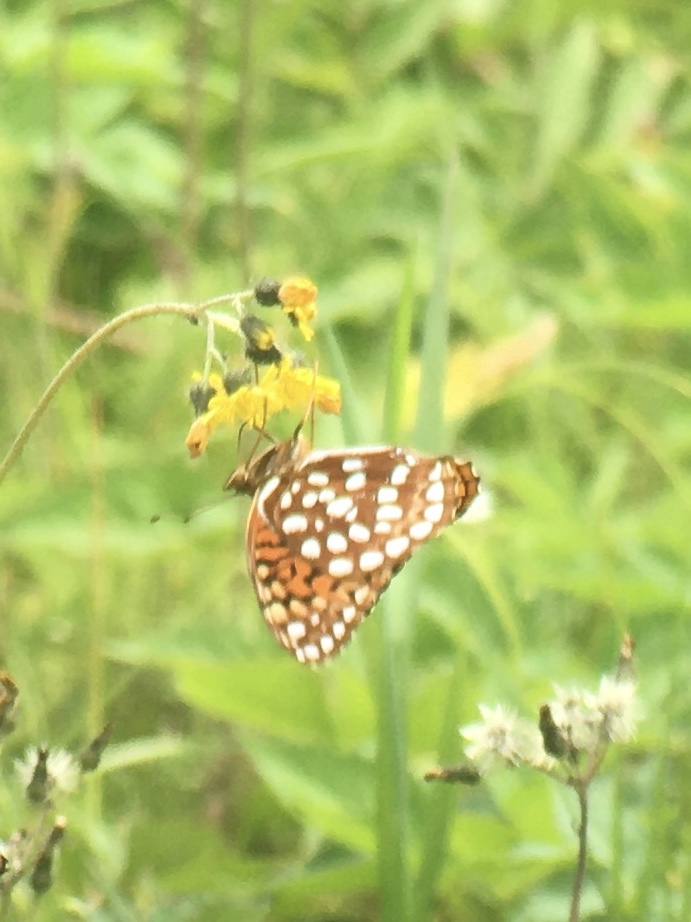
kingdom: Animalia
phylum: Arthropoda
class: Insecta
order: Lepidoptera
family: Nymphalidae
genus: Speyeria
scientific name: Speyeria aphrodite
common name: Aphrodite friitllary
